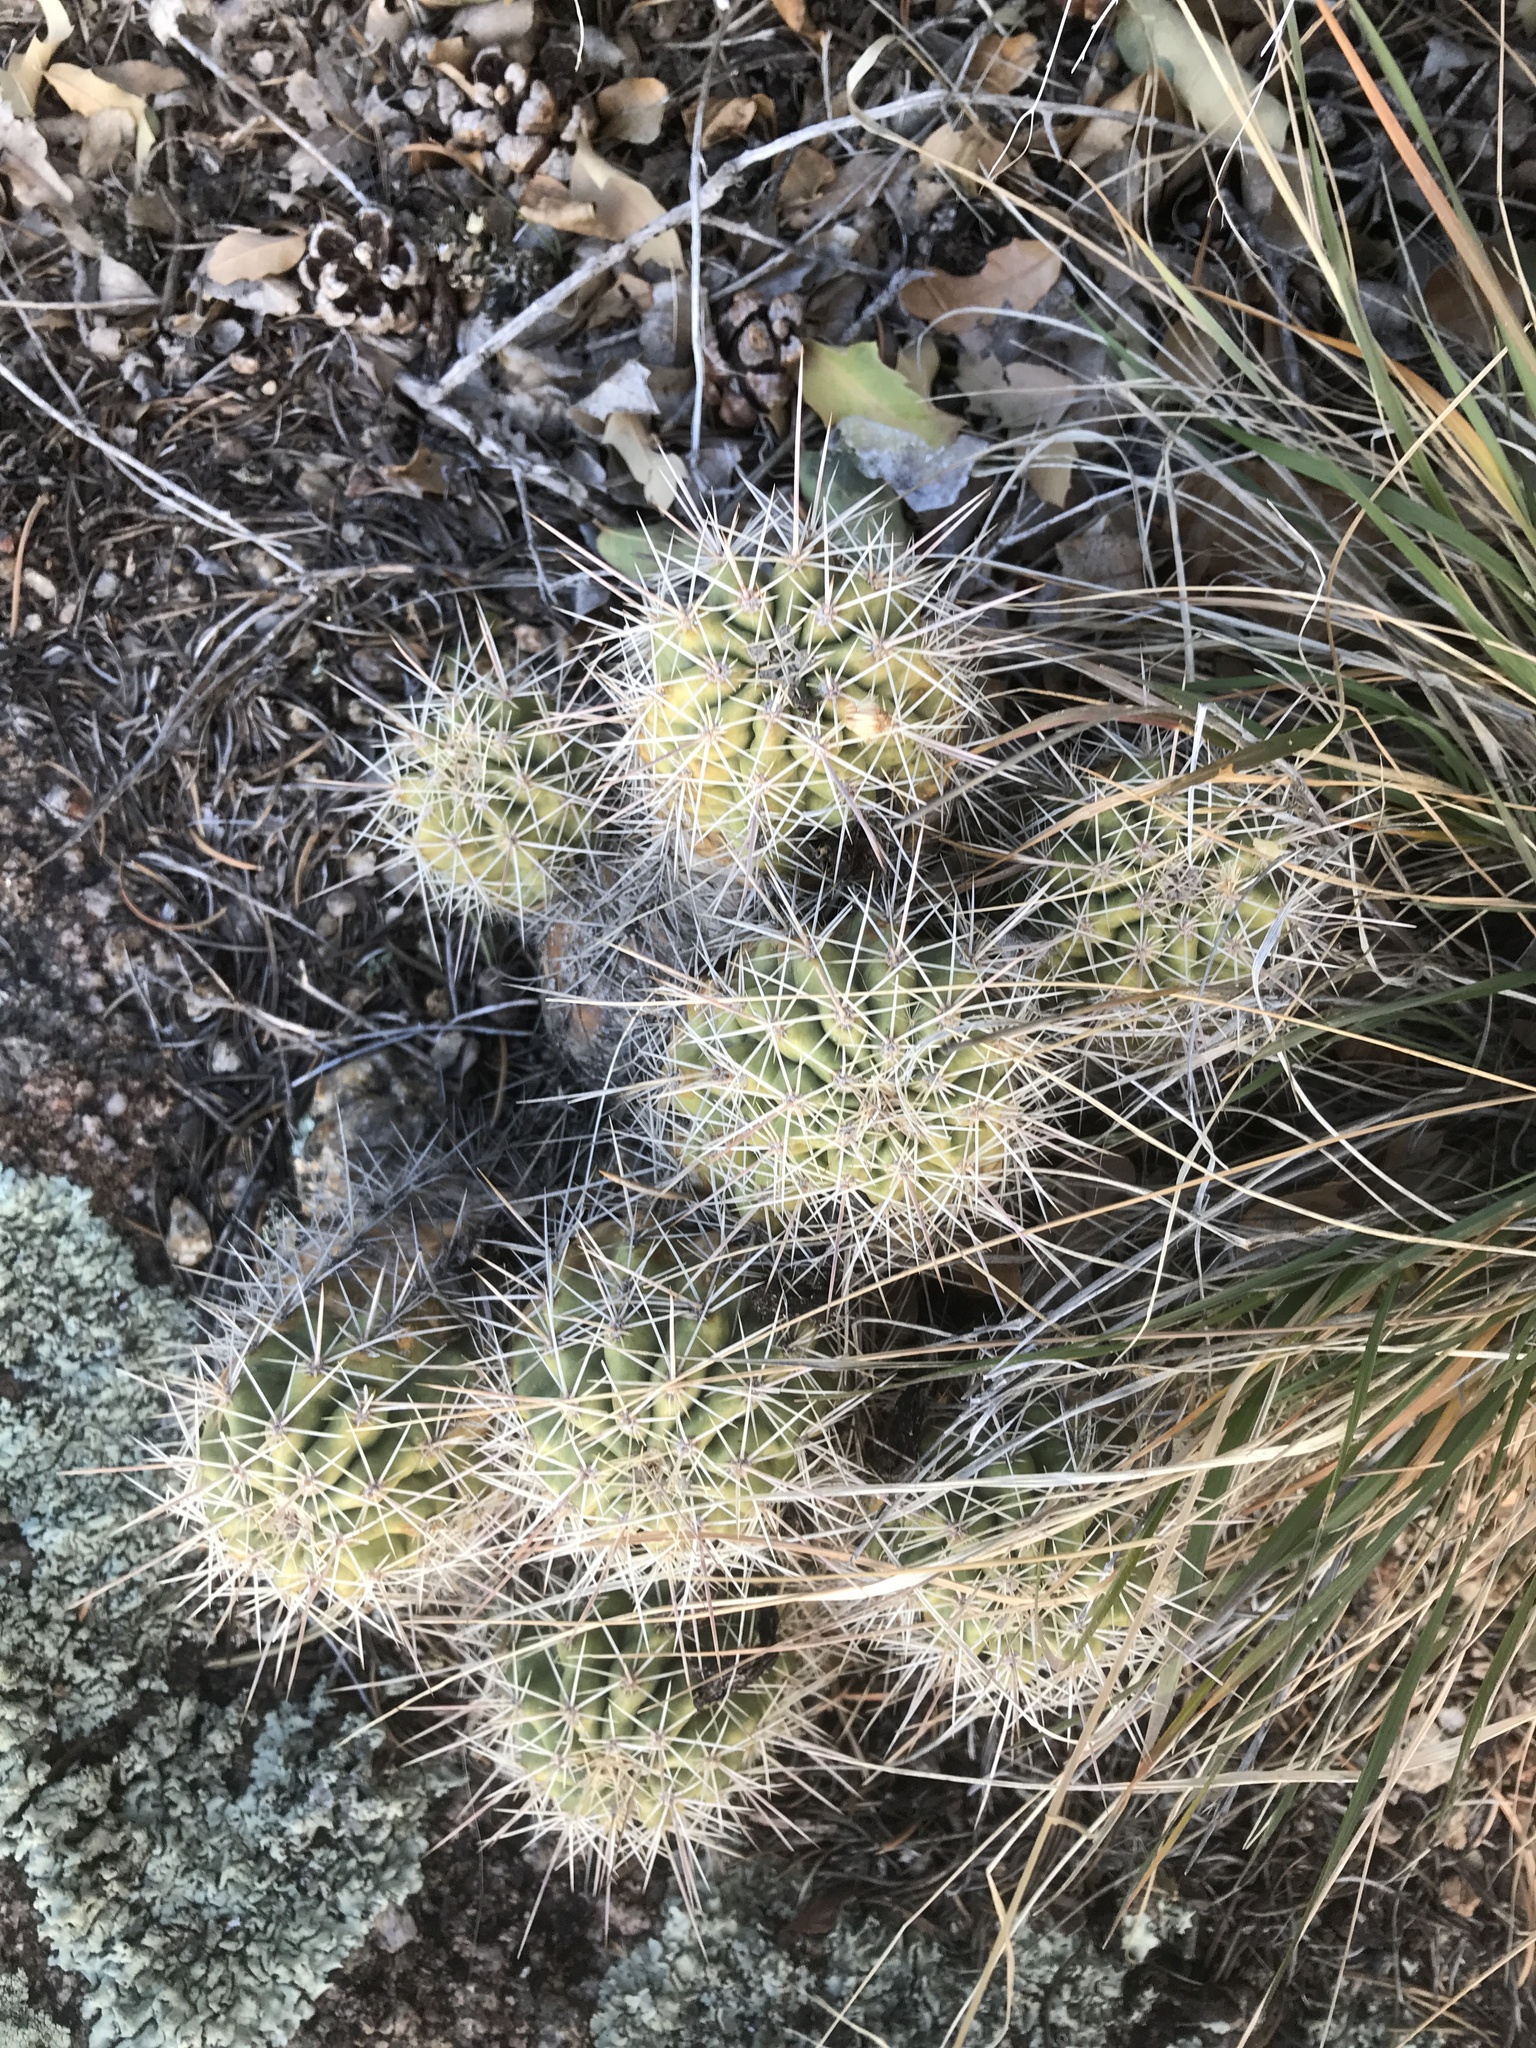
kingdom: Plantae
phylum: Tracheophyta
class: Magnoliopsida
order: Caryophyllales
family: Cactaceae
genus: Echinocereus
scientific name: Echinocereus coccineus
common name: Scarlet hedgehog cactus
